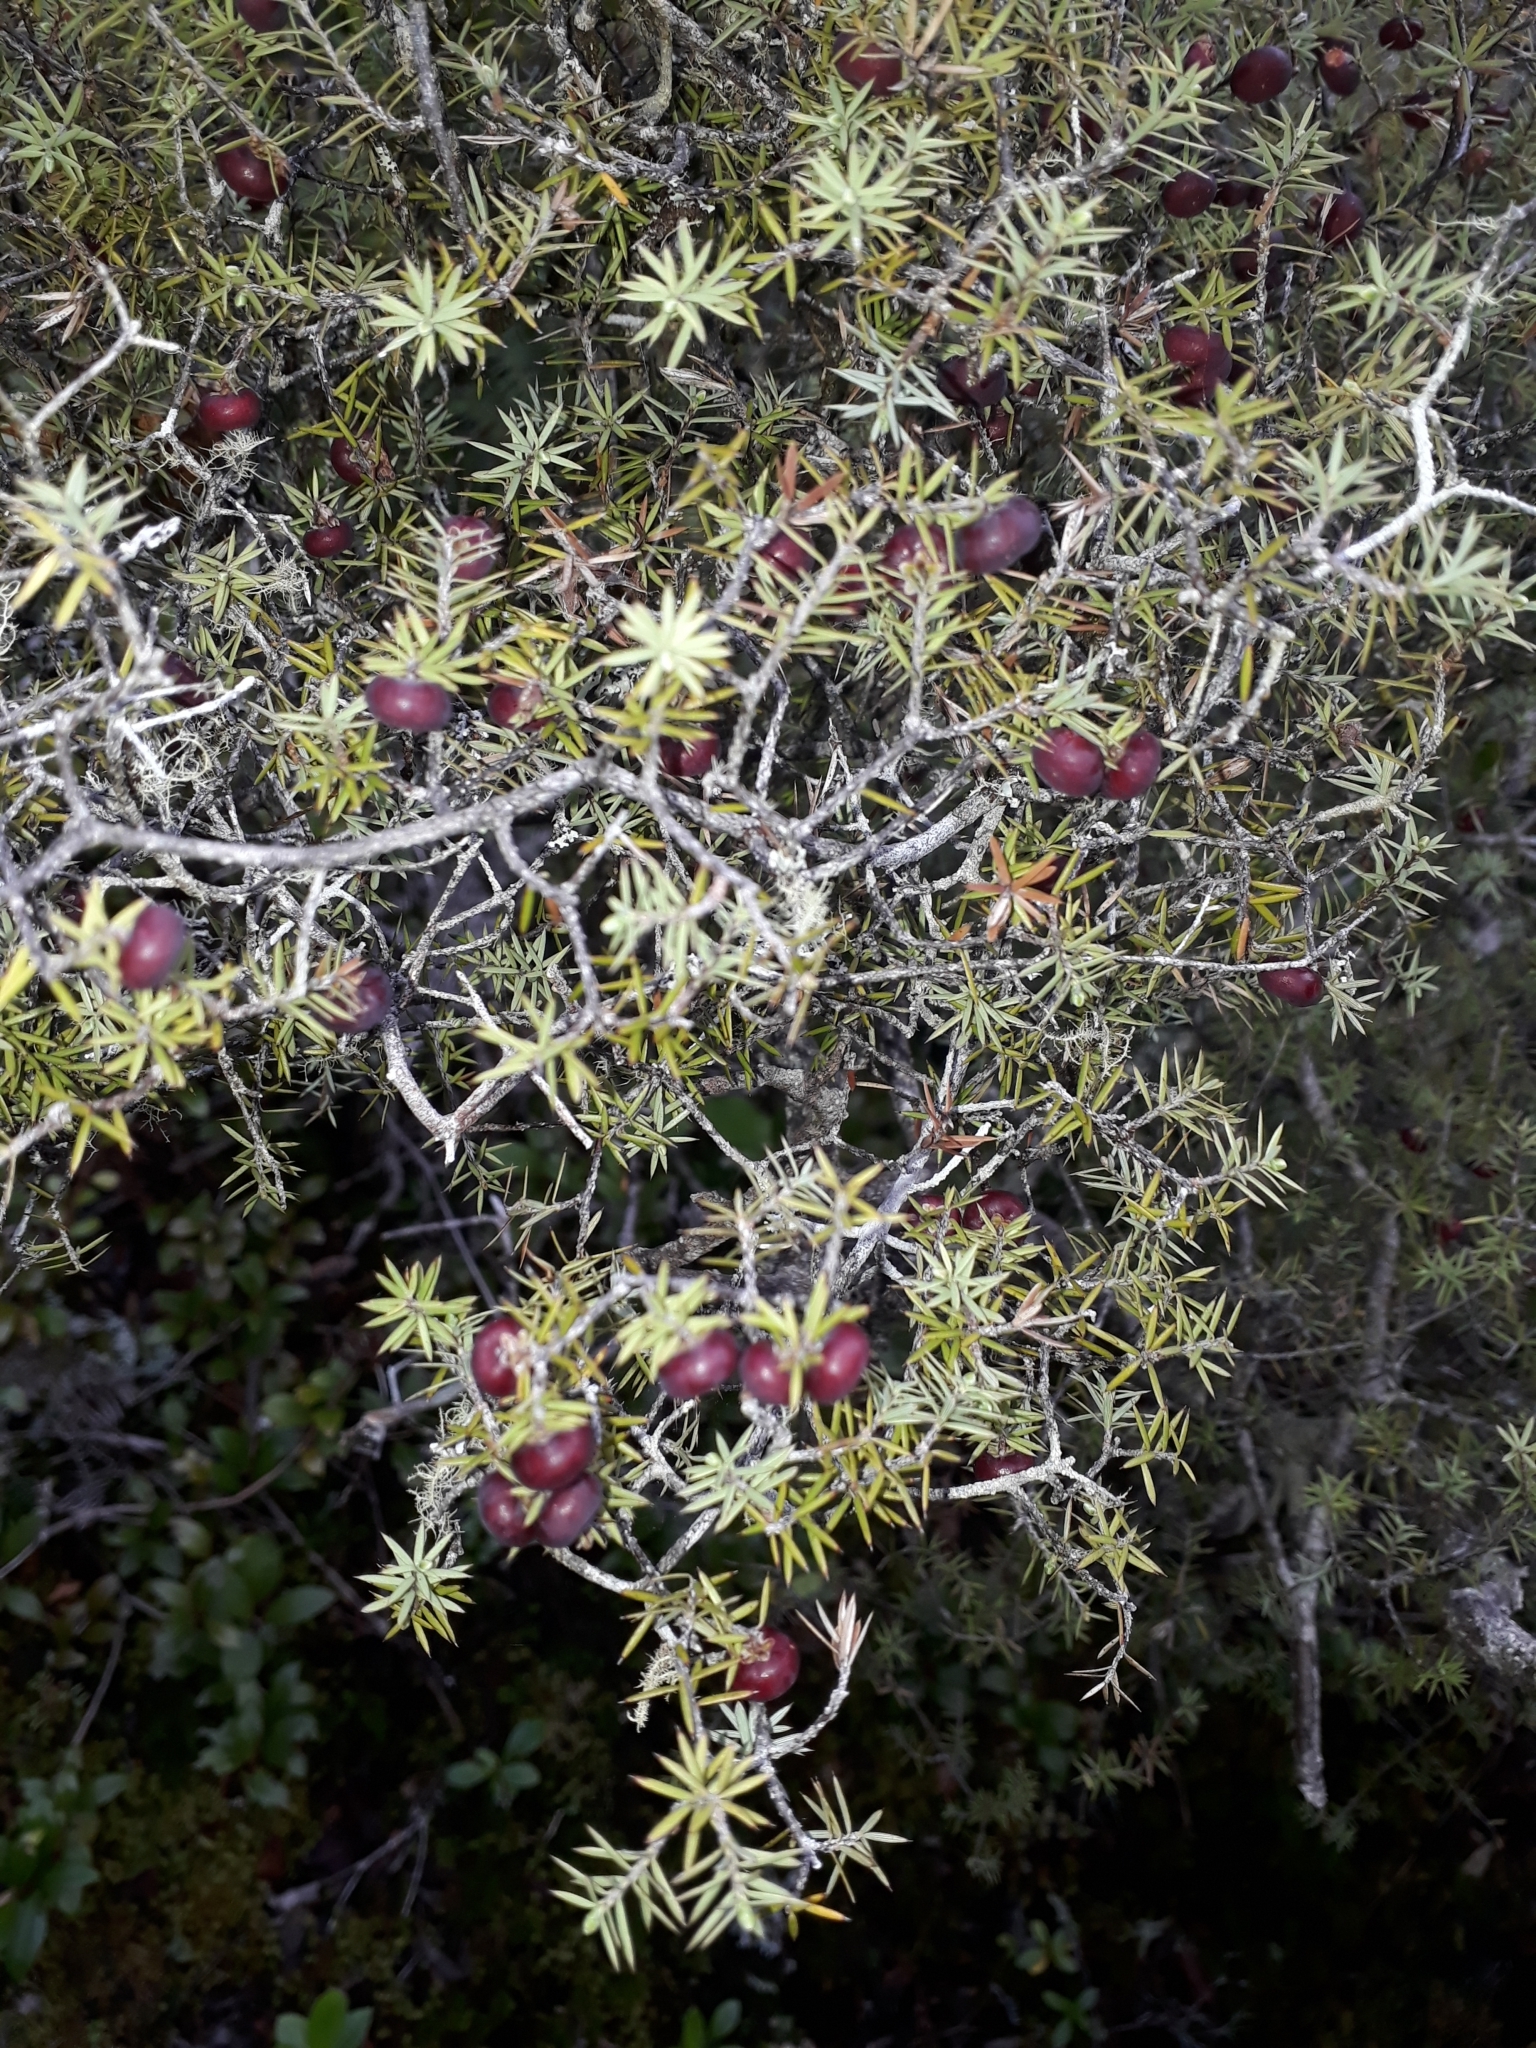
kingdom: Plantae
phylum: Tracheophyta
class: Magnoliopsida
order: Ericales
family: Ericaceae
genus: Leptecophylla
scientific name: Leptecophylla juniperina
